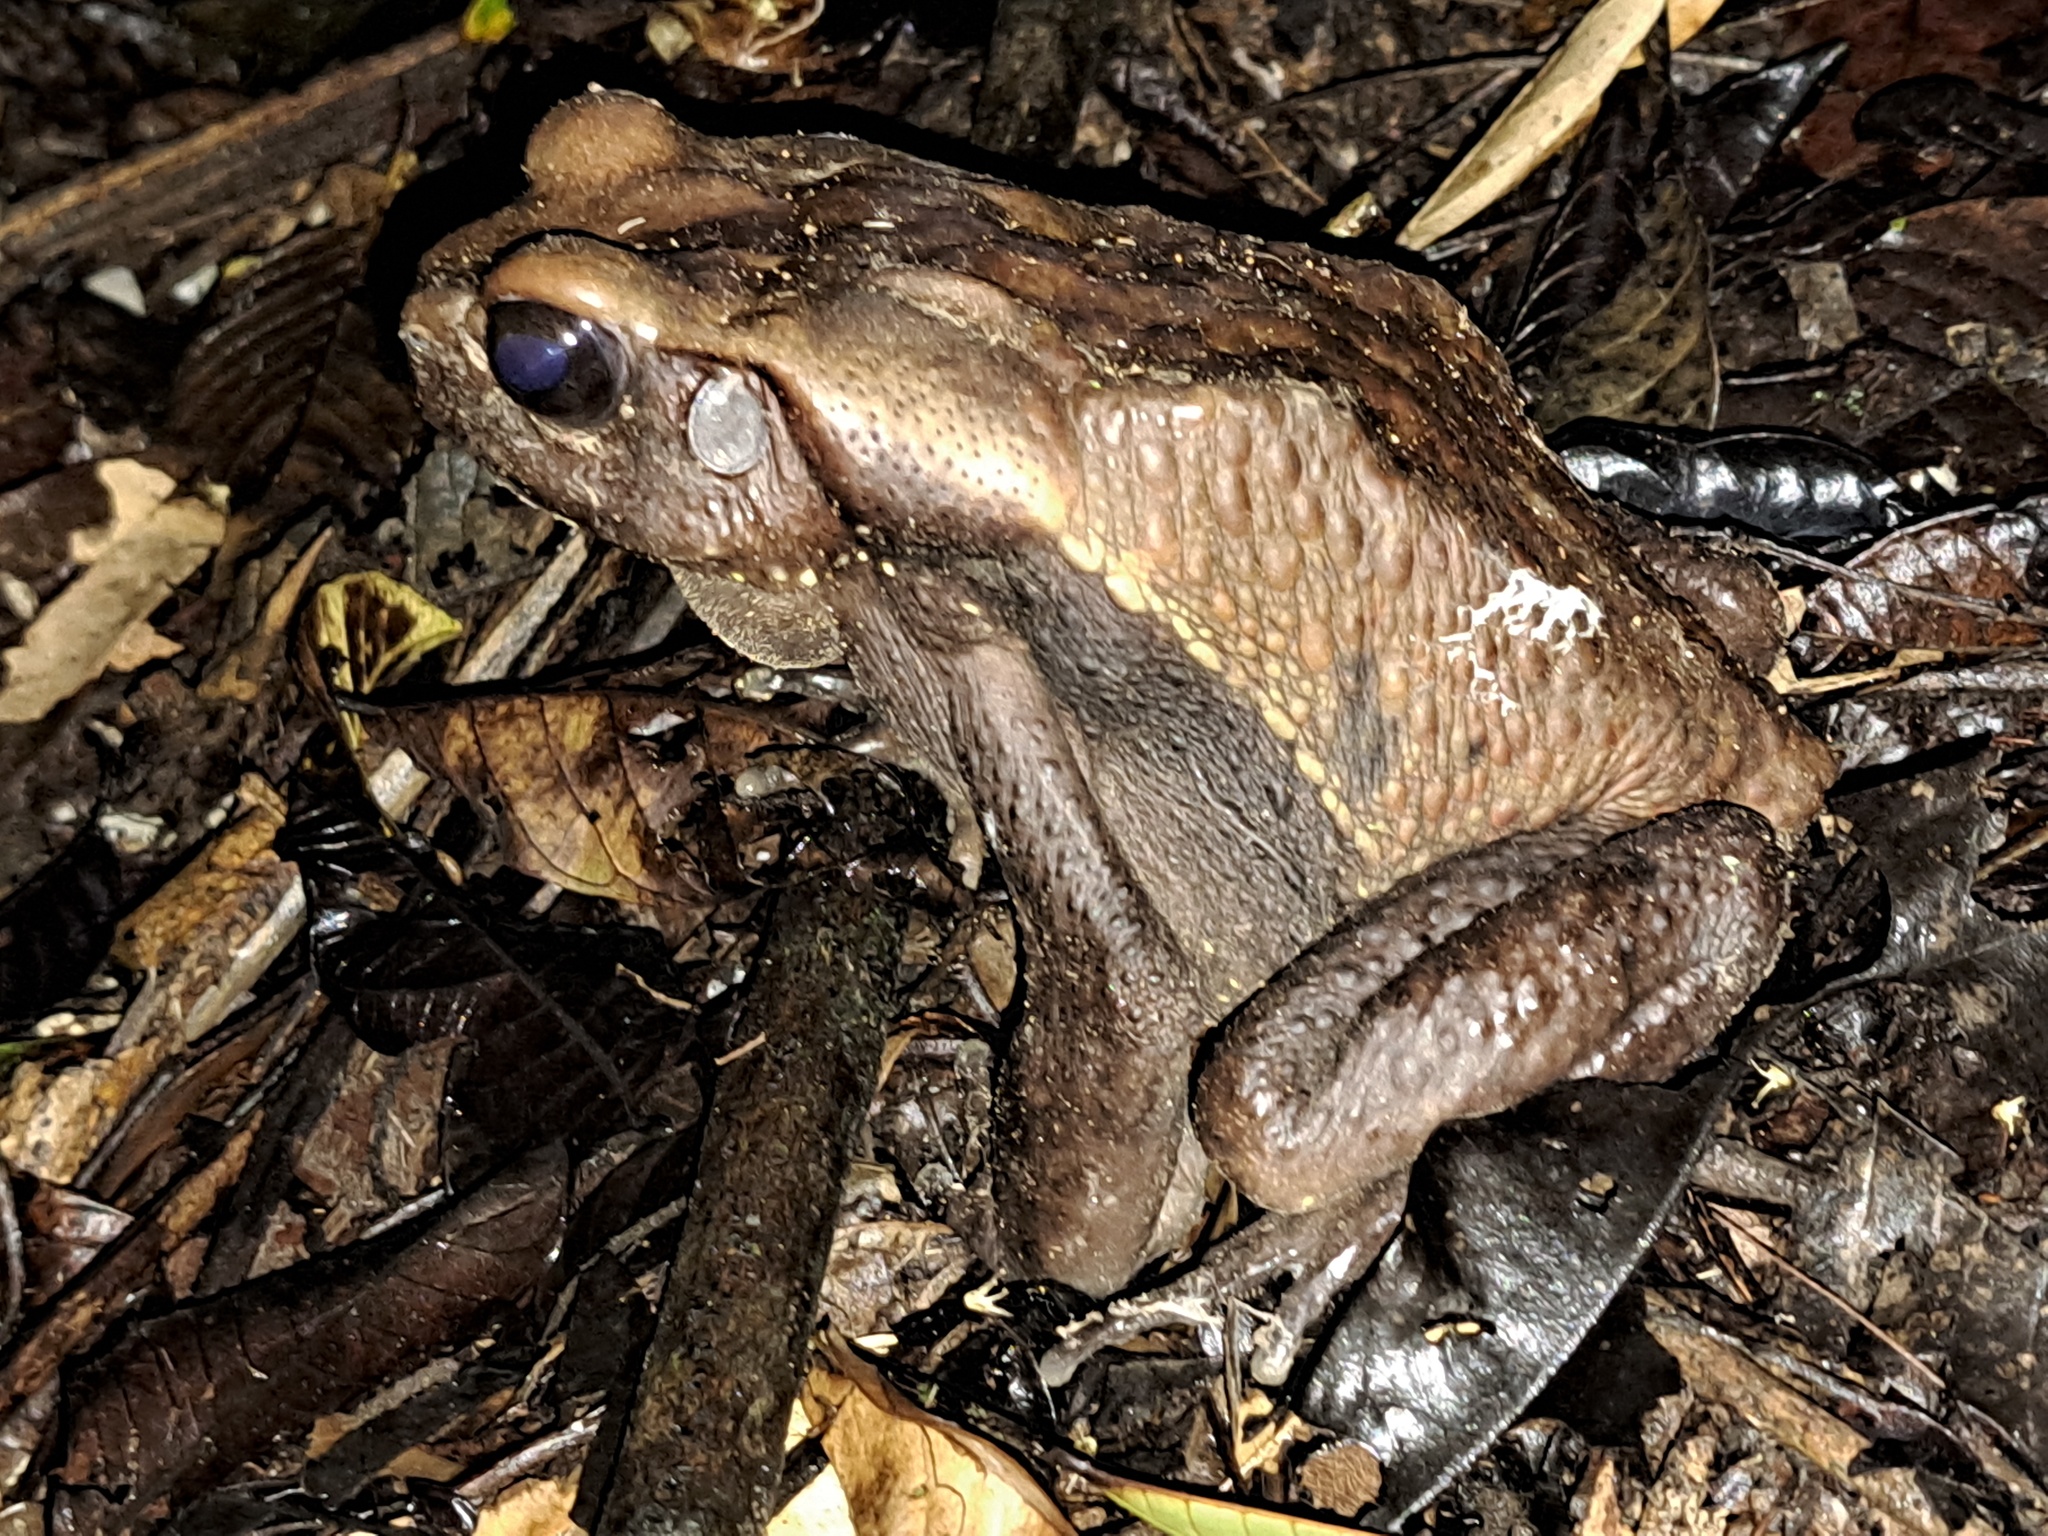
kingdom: Animalia
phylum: Chordata
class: Amphibia
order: Anura
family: Bufonidae
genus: Rhaebo
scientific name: Rhaebo guttatus
